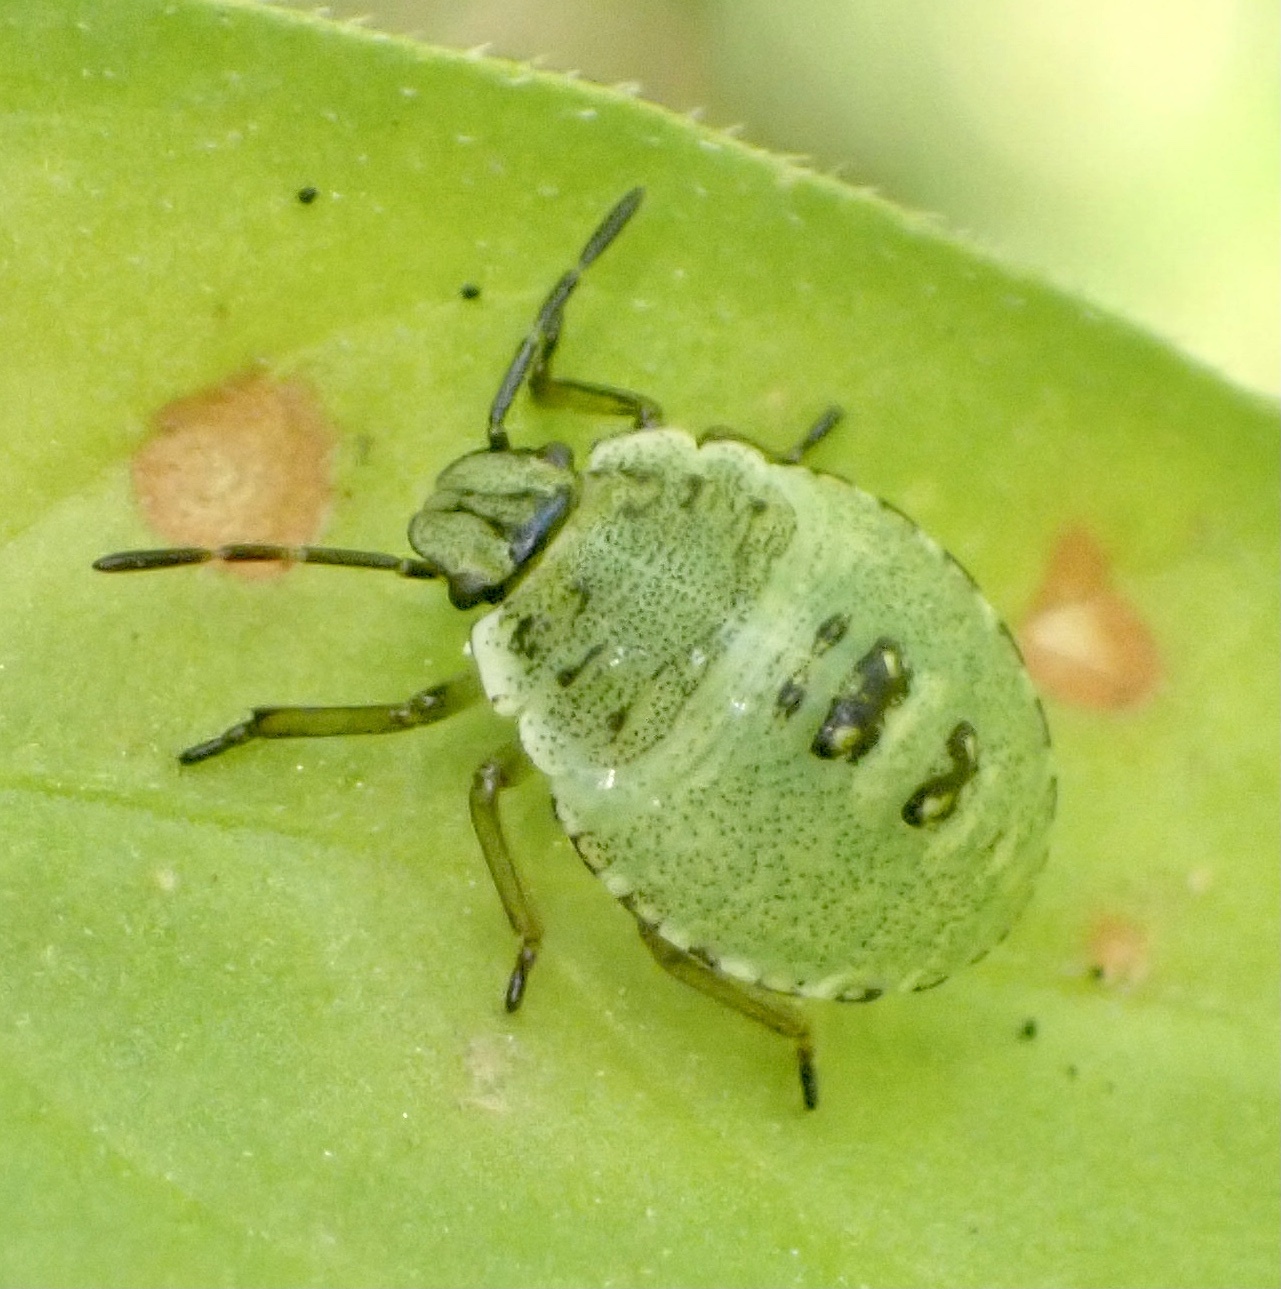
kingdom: Animalia
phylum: Arthropoda
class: Insecta
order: Hemiptera
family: Pentatomidae
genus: Palomena
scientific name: Palomena prasina
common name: Green shieldbug
